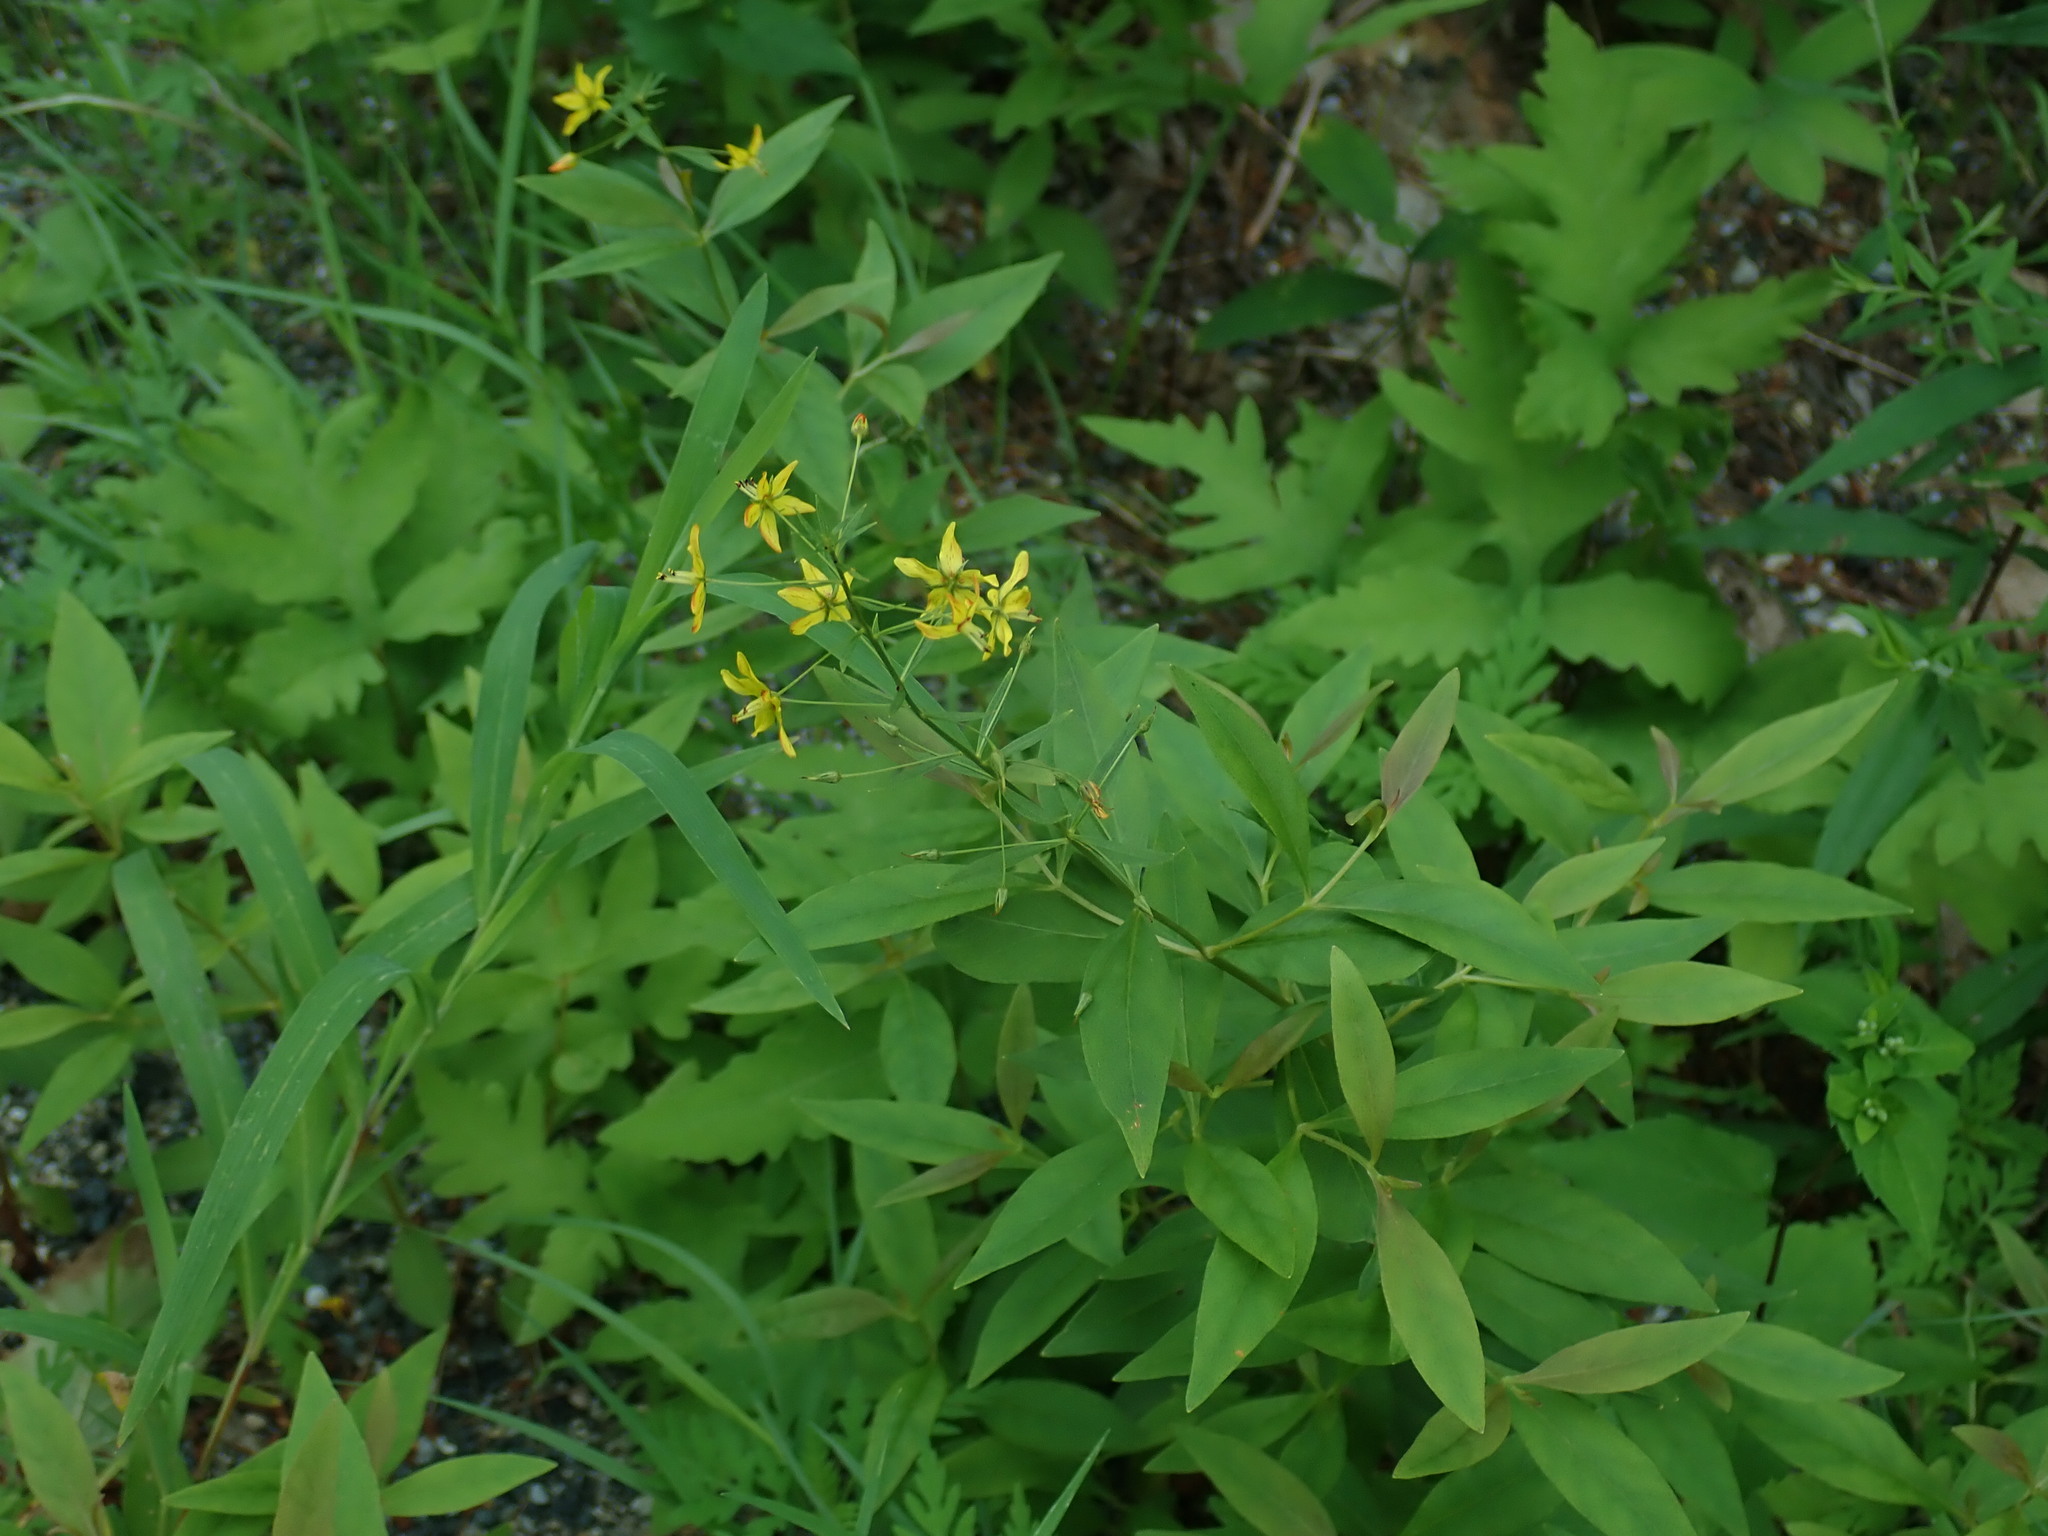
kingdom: Plantae
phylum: Tracheophyta
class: Magnoliopsida
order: Ericales
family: Primulaceae
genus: Lysimachia
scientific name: Lysimachia terrestris
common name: Lake loosestrife
